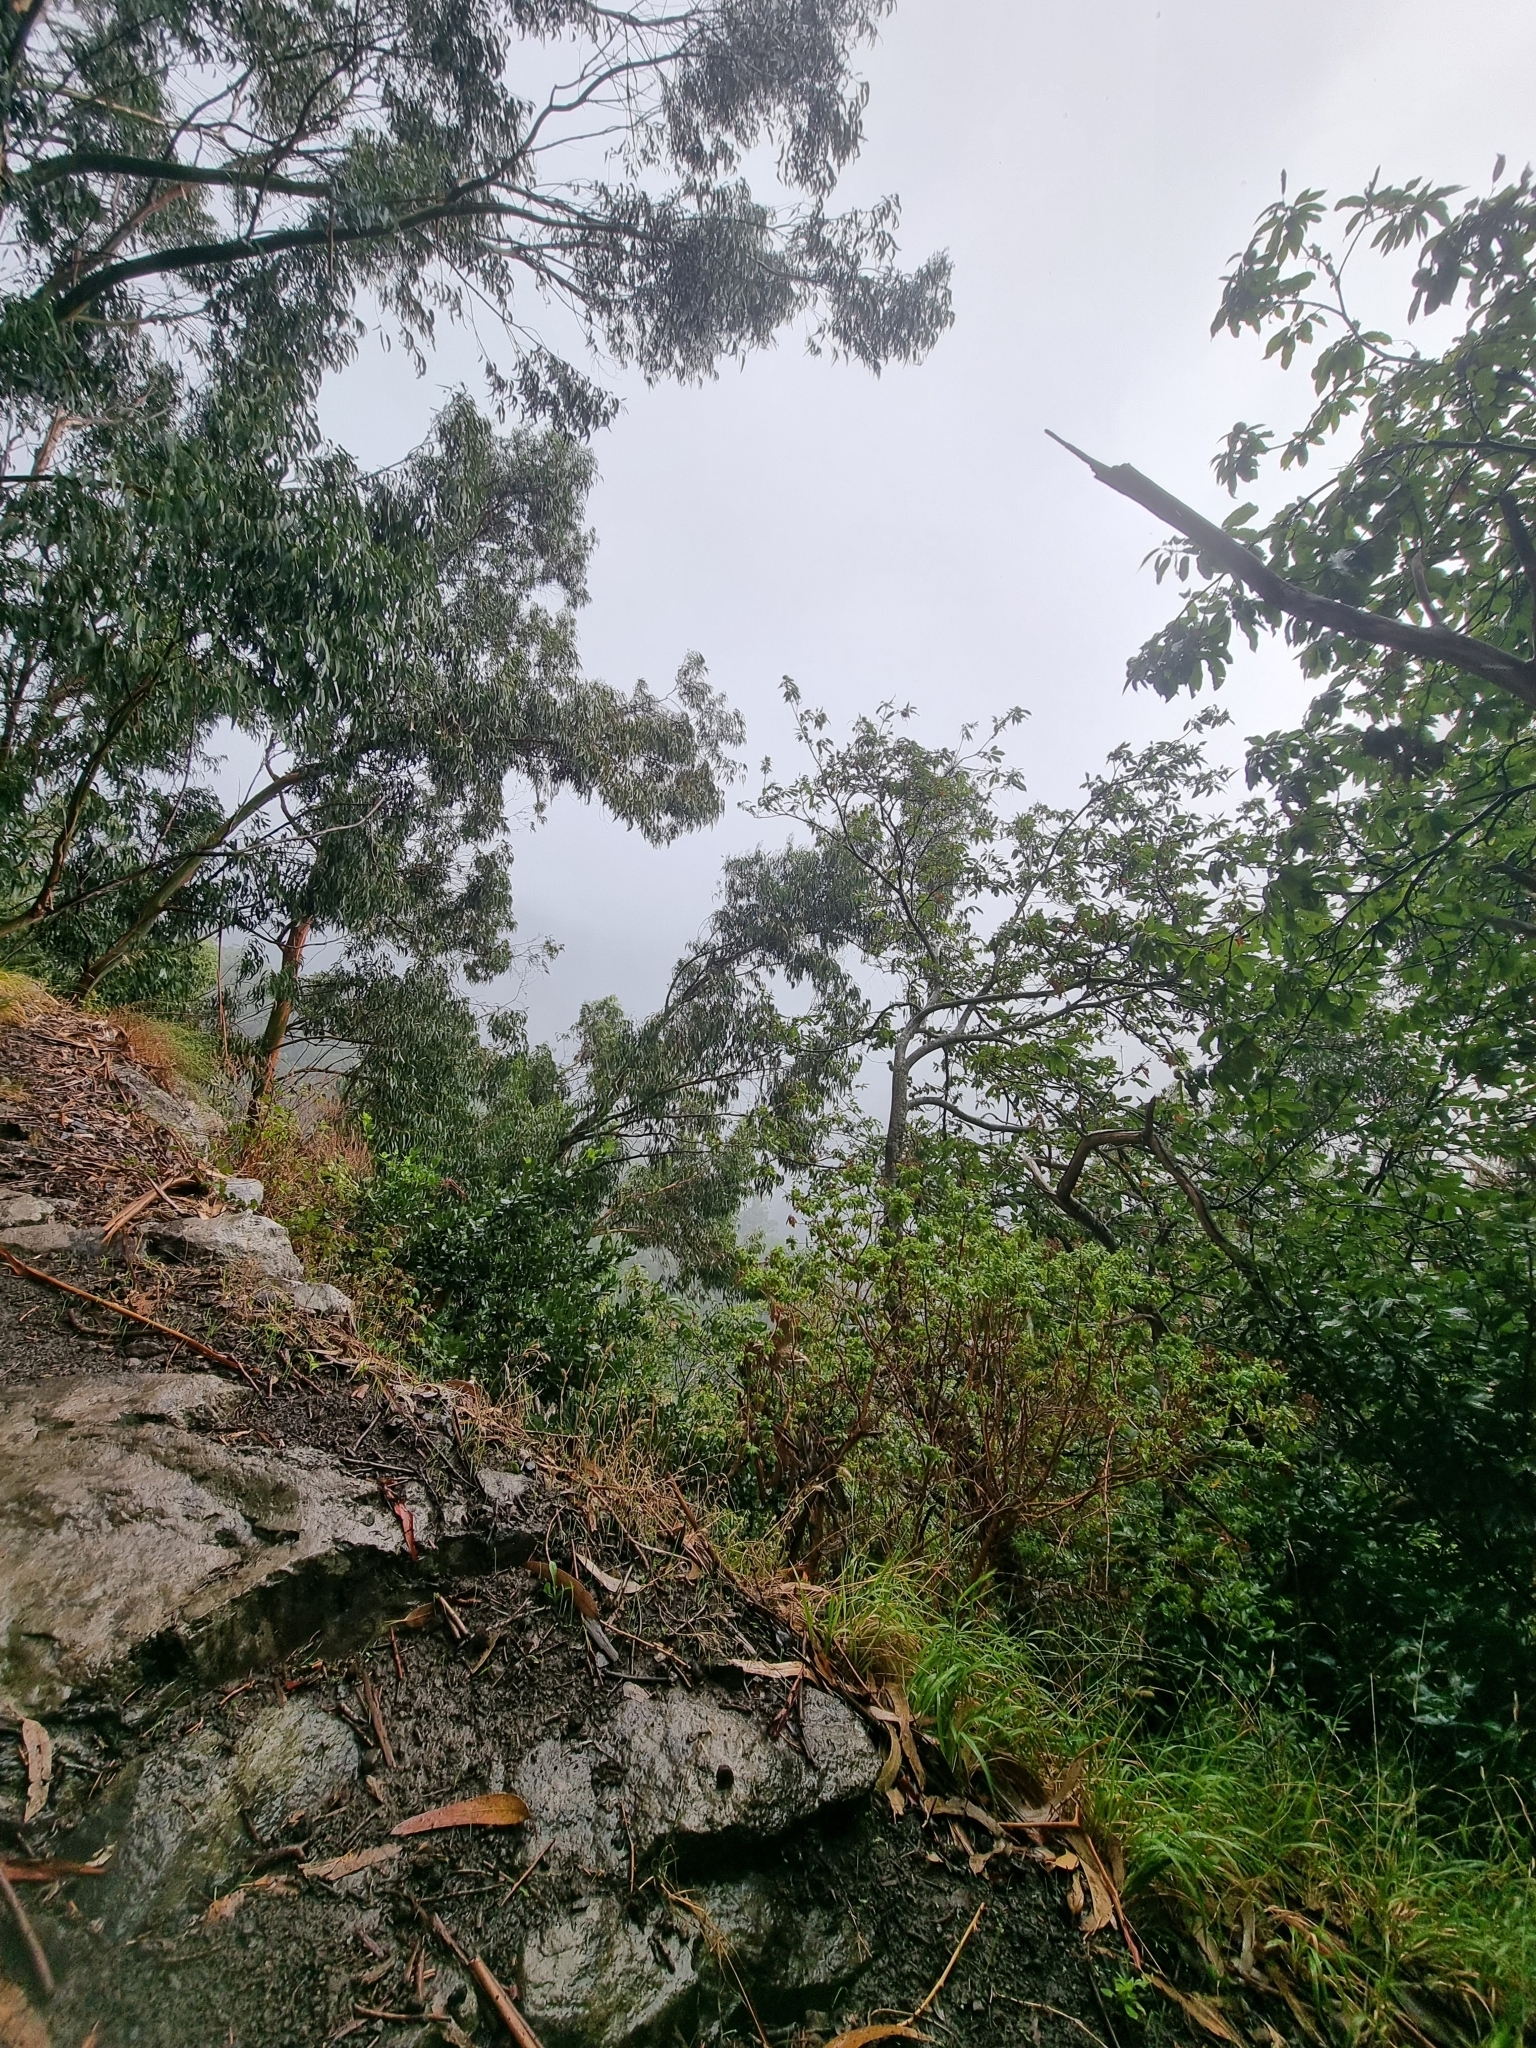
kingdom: Plantae
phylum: Tracheophyta
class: Magnoliopsida
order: Myrtales
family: Myrtaceae
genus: Eucalyptus
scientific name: Eucalyptus globulus
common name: Southern blue-gum
